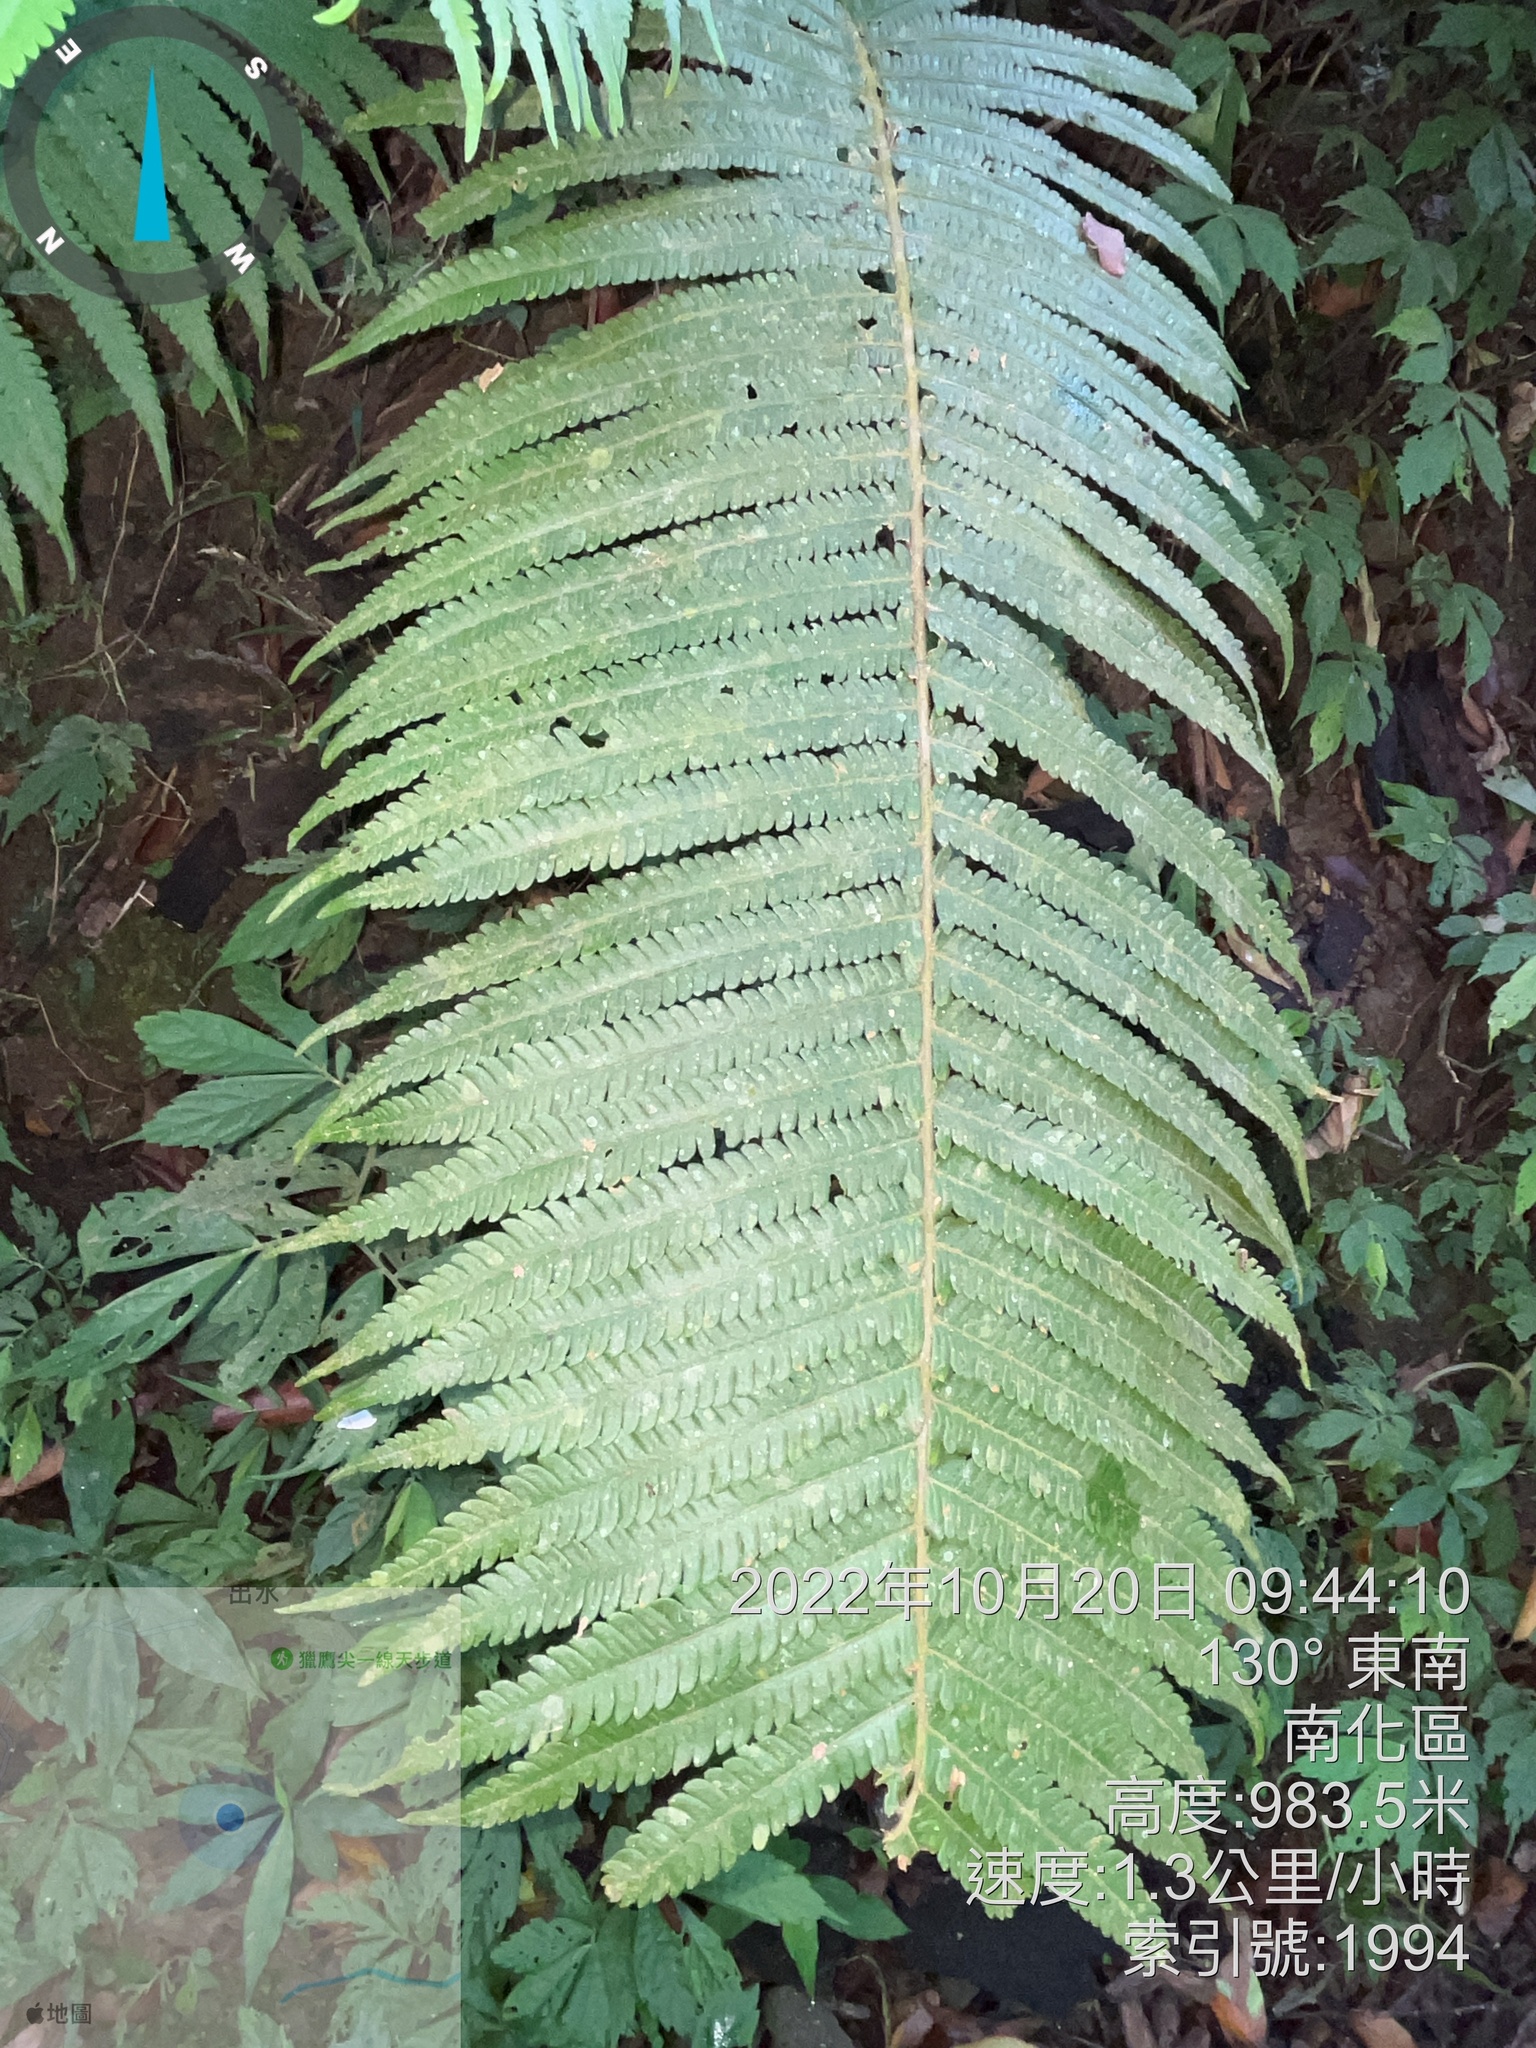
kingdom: Plantae
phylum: Tracheophyta
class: Polypodiopsida
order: Polypodiales
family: Thelypteridaceae
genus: Sphaerostephanos
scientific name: Sphaerostephanos taiwanensis
